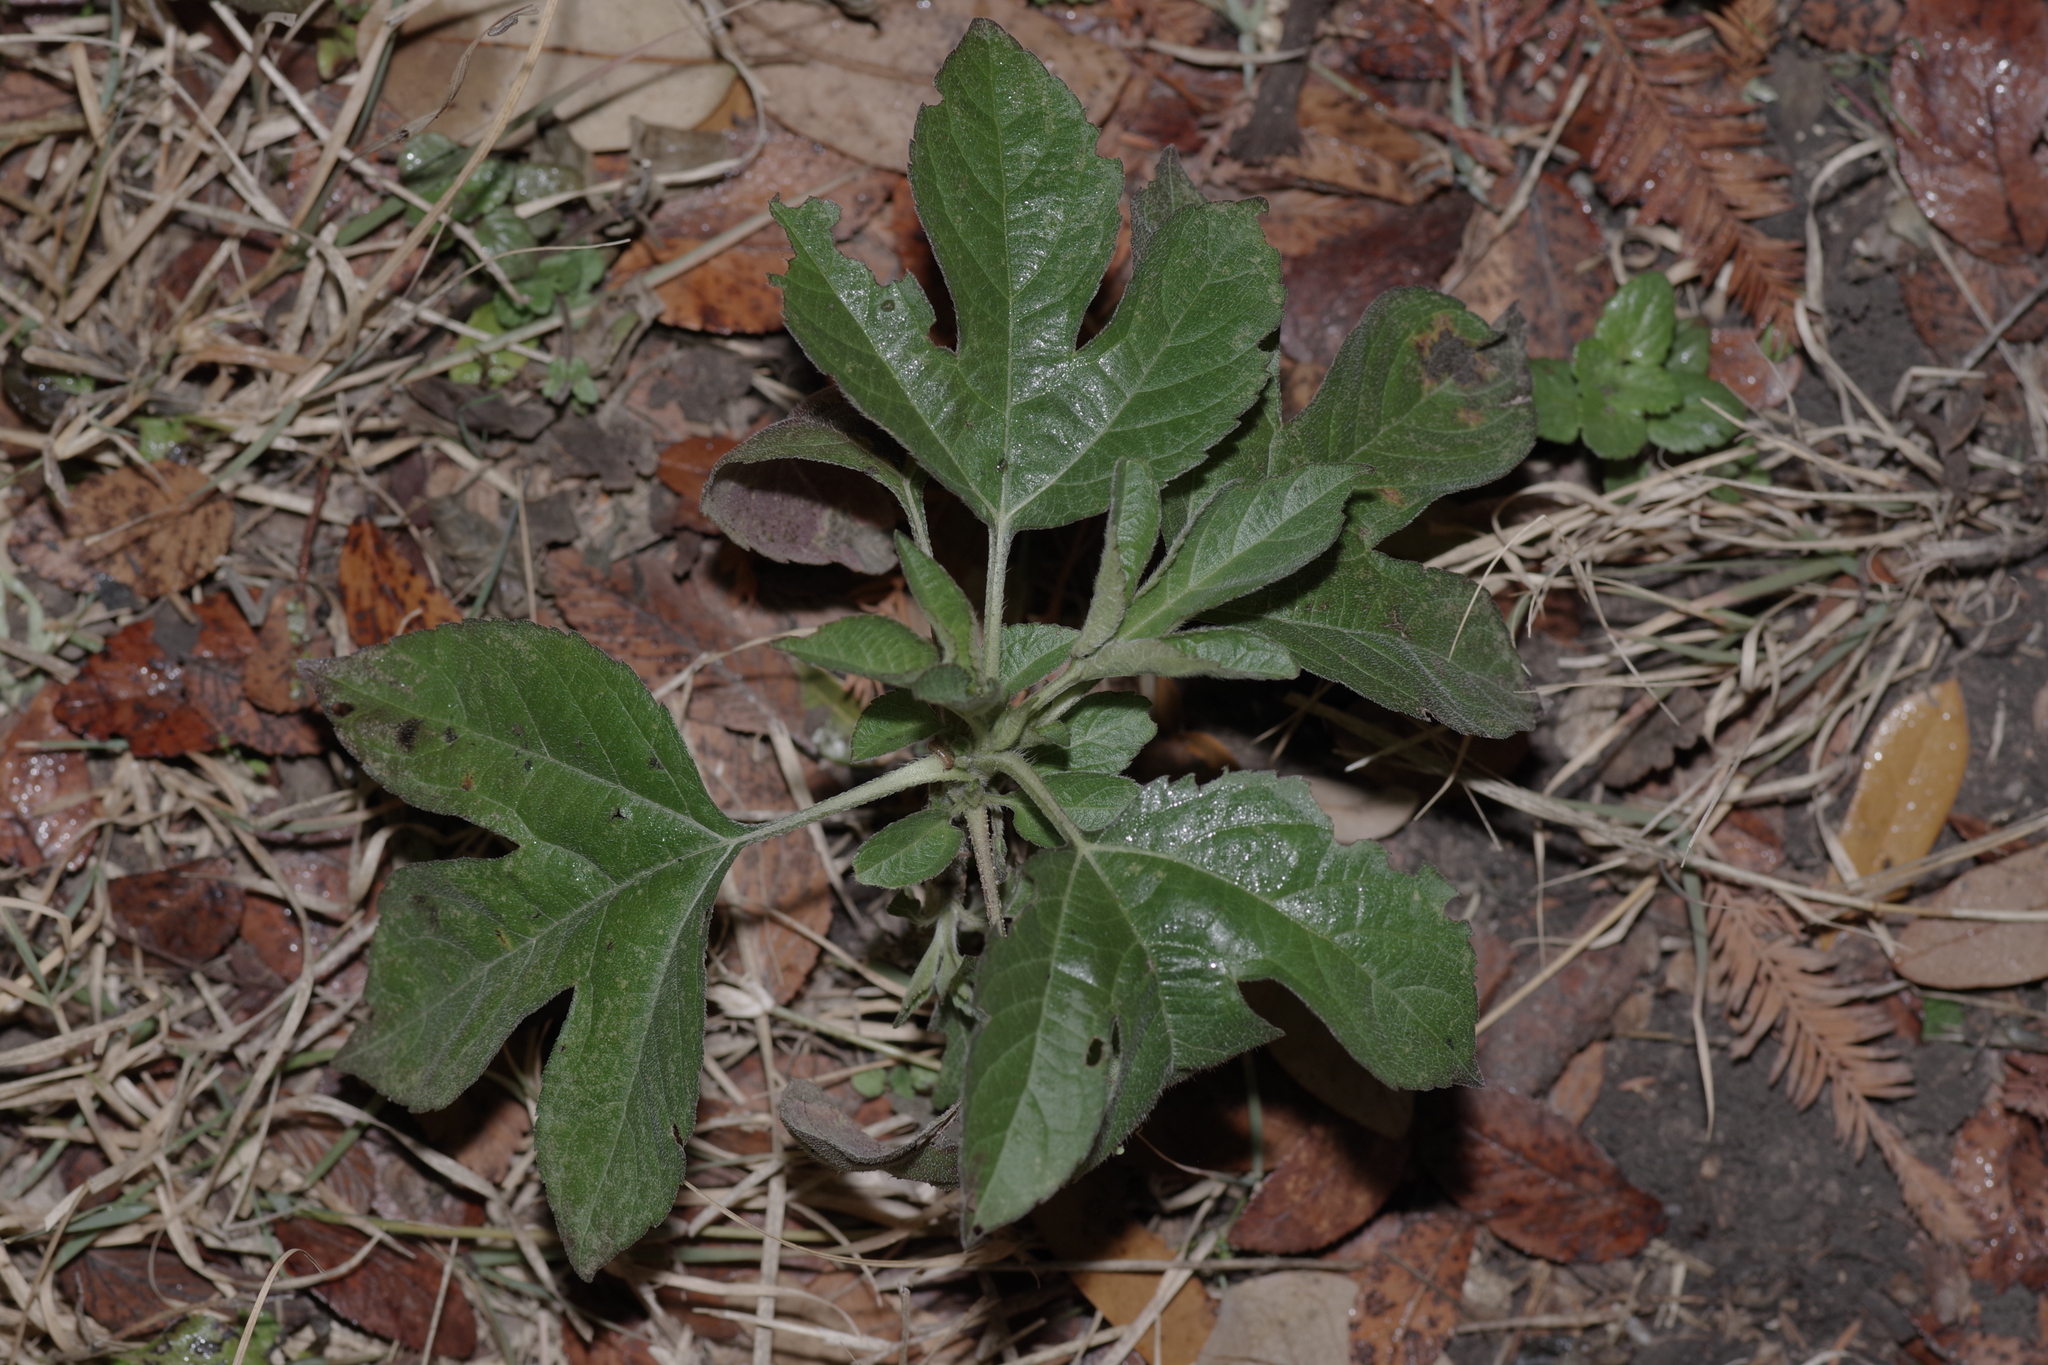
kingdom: Plantae
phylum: Tracheophyta
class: Magnoliopsida
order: Asterales
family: Asteraceae
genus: Ambrosia
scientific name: Ambrosia trifida
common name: Giant ragweed
